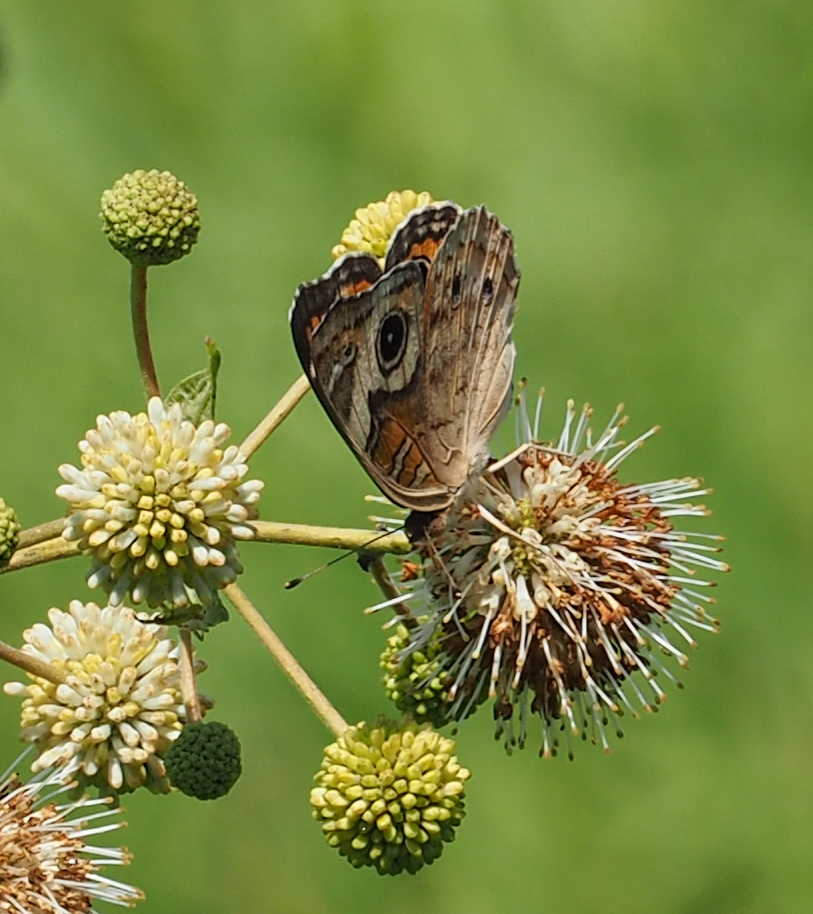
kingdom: Animalia
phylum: Arthropoda
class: Insecta
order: Lepidoptera
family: Nymphalidae
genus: Junonia
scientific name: Junonia coenia
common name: Common buckeye
